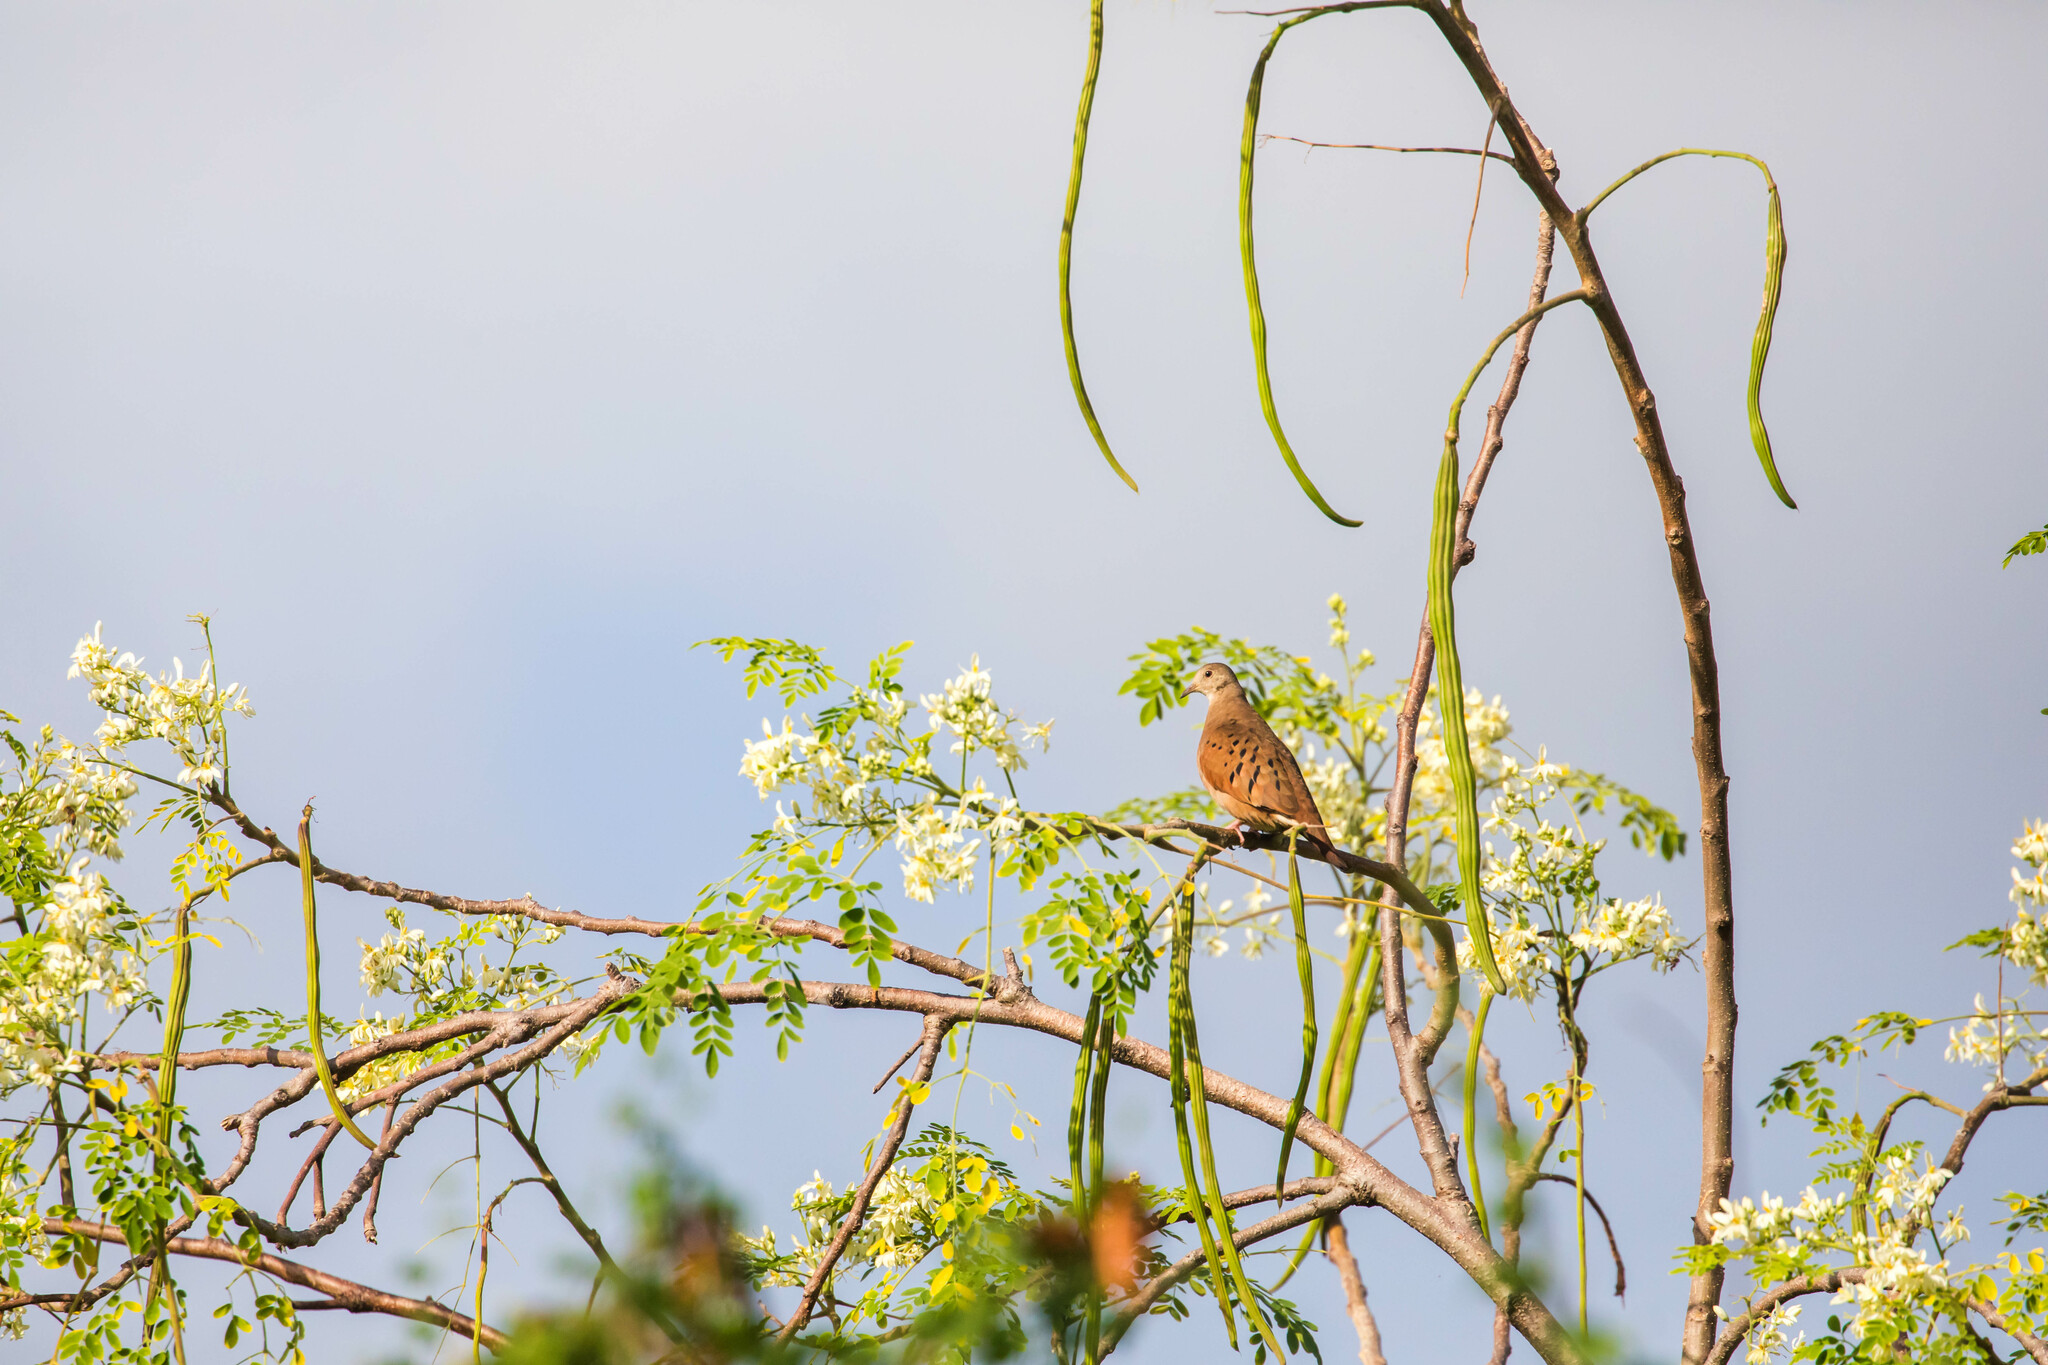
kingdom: Animalia
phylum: Chordata
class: Aves
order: Columbiformes
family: Columbidae
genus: Columbina
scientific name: Columbina talpacoti
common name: Ruddy ground dove
